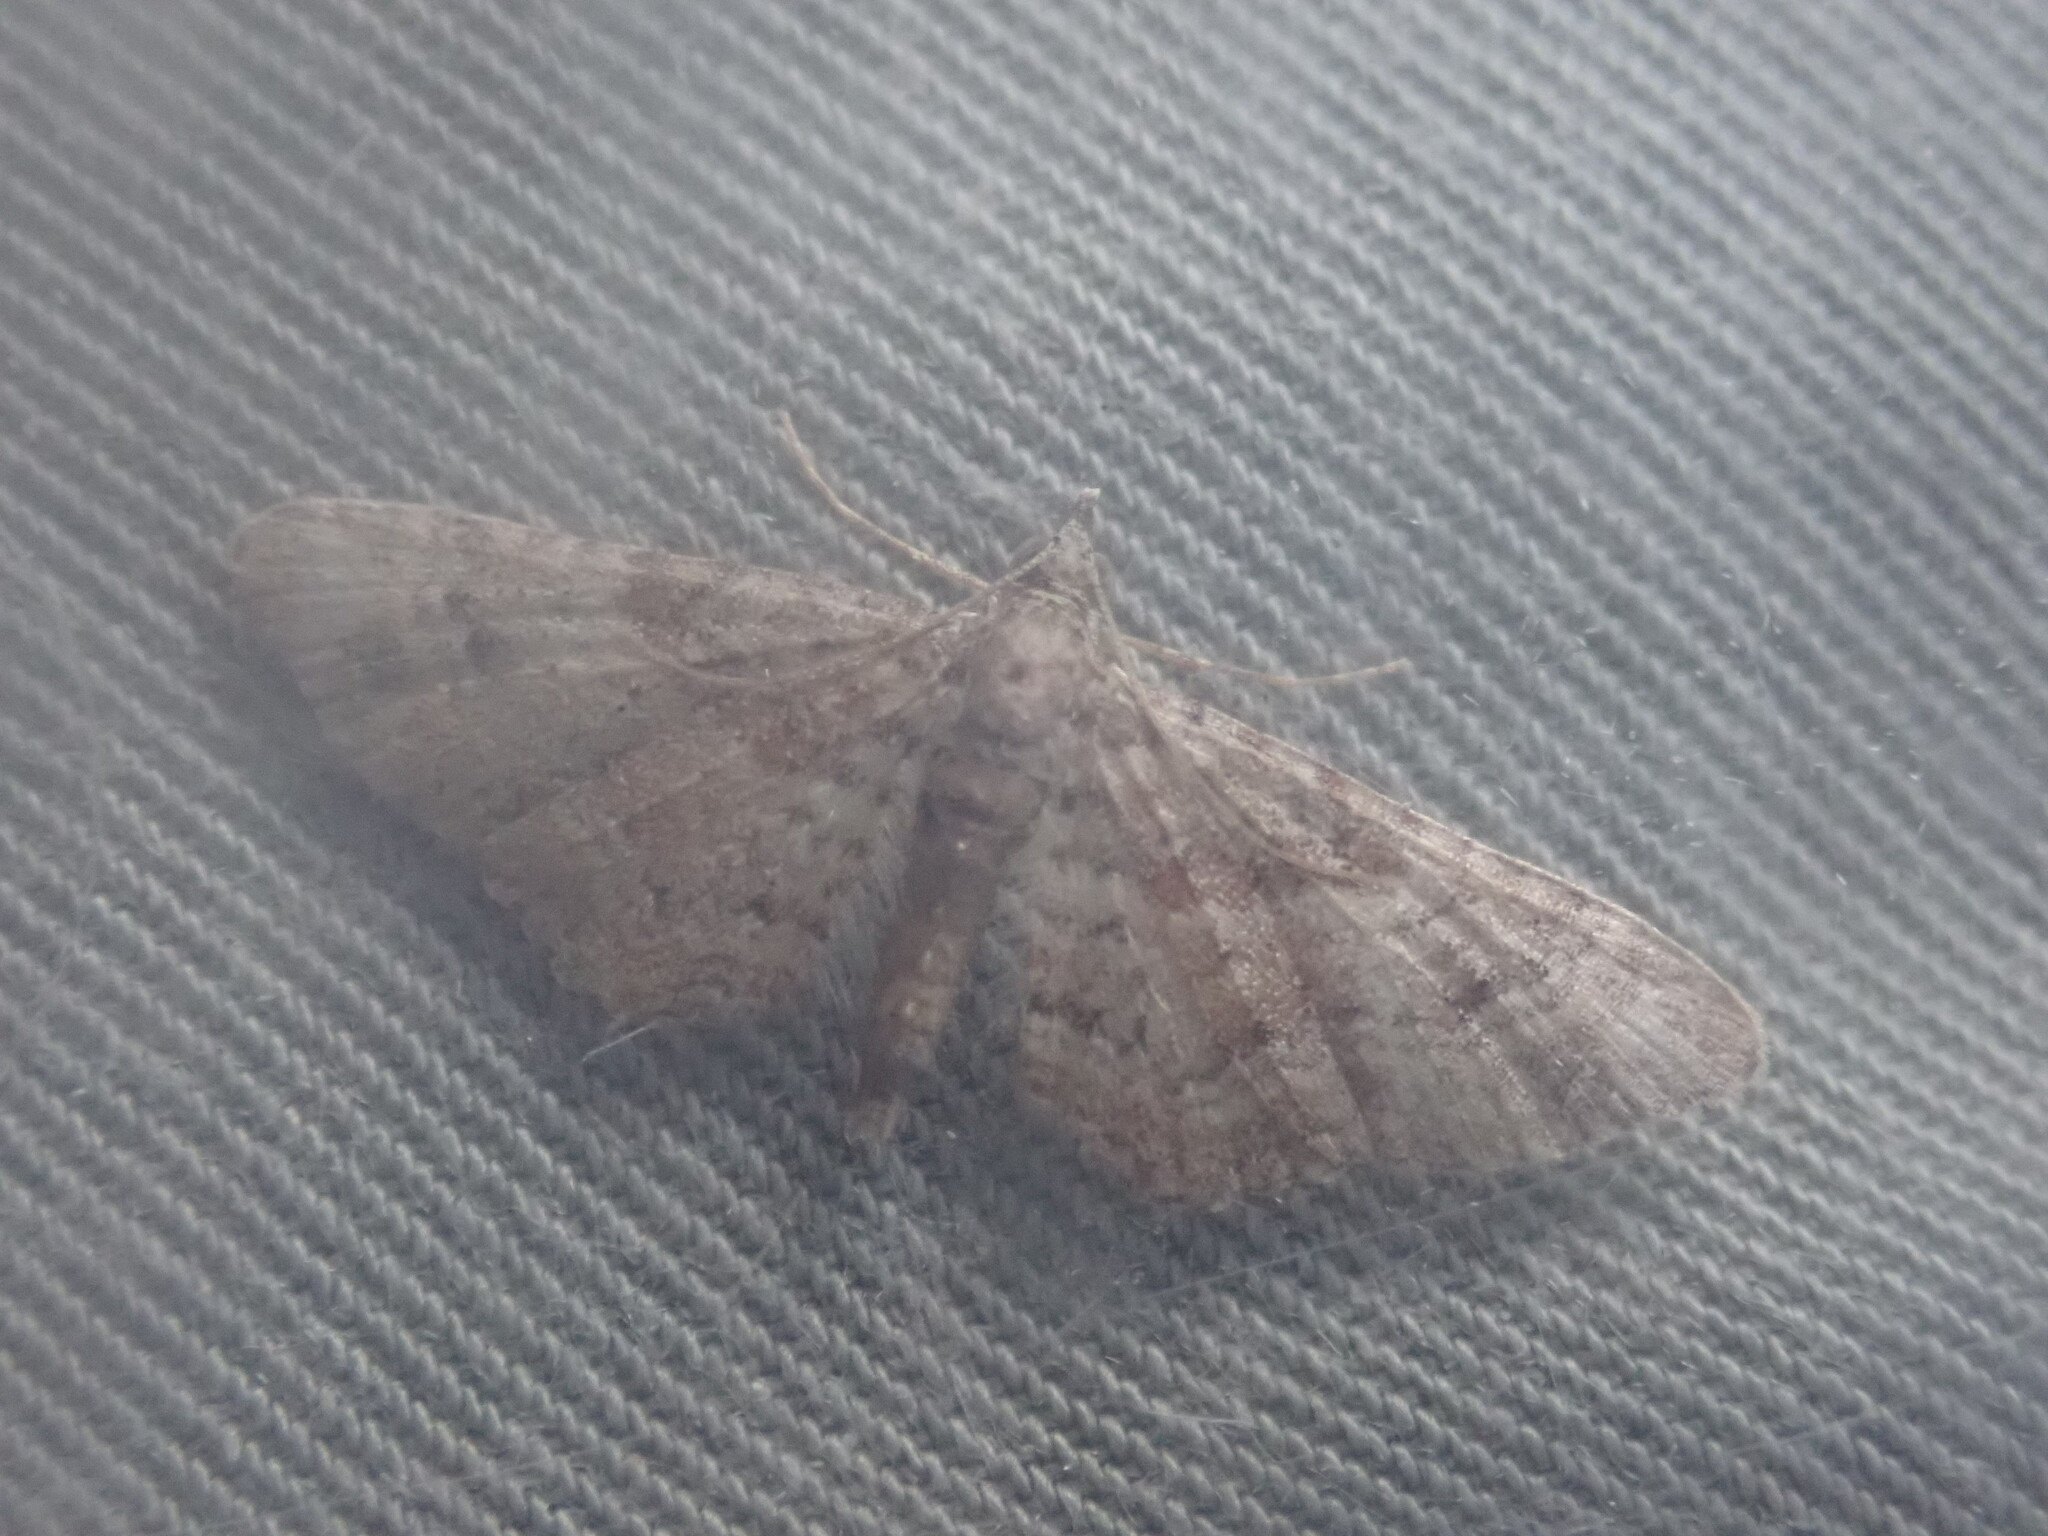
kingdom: Animalia
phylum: Arthropoda
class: Insecta
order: Lepidoptera
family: Geometridae
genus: Gymnoscelis
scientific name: Gymnoscelis rufifasciata
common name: Double-striped pug
